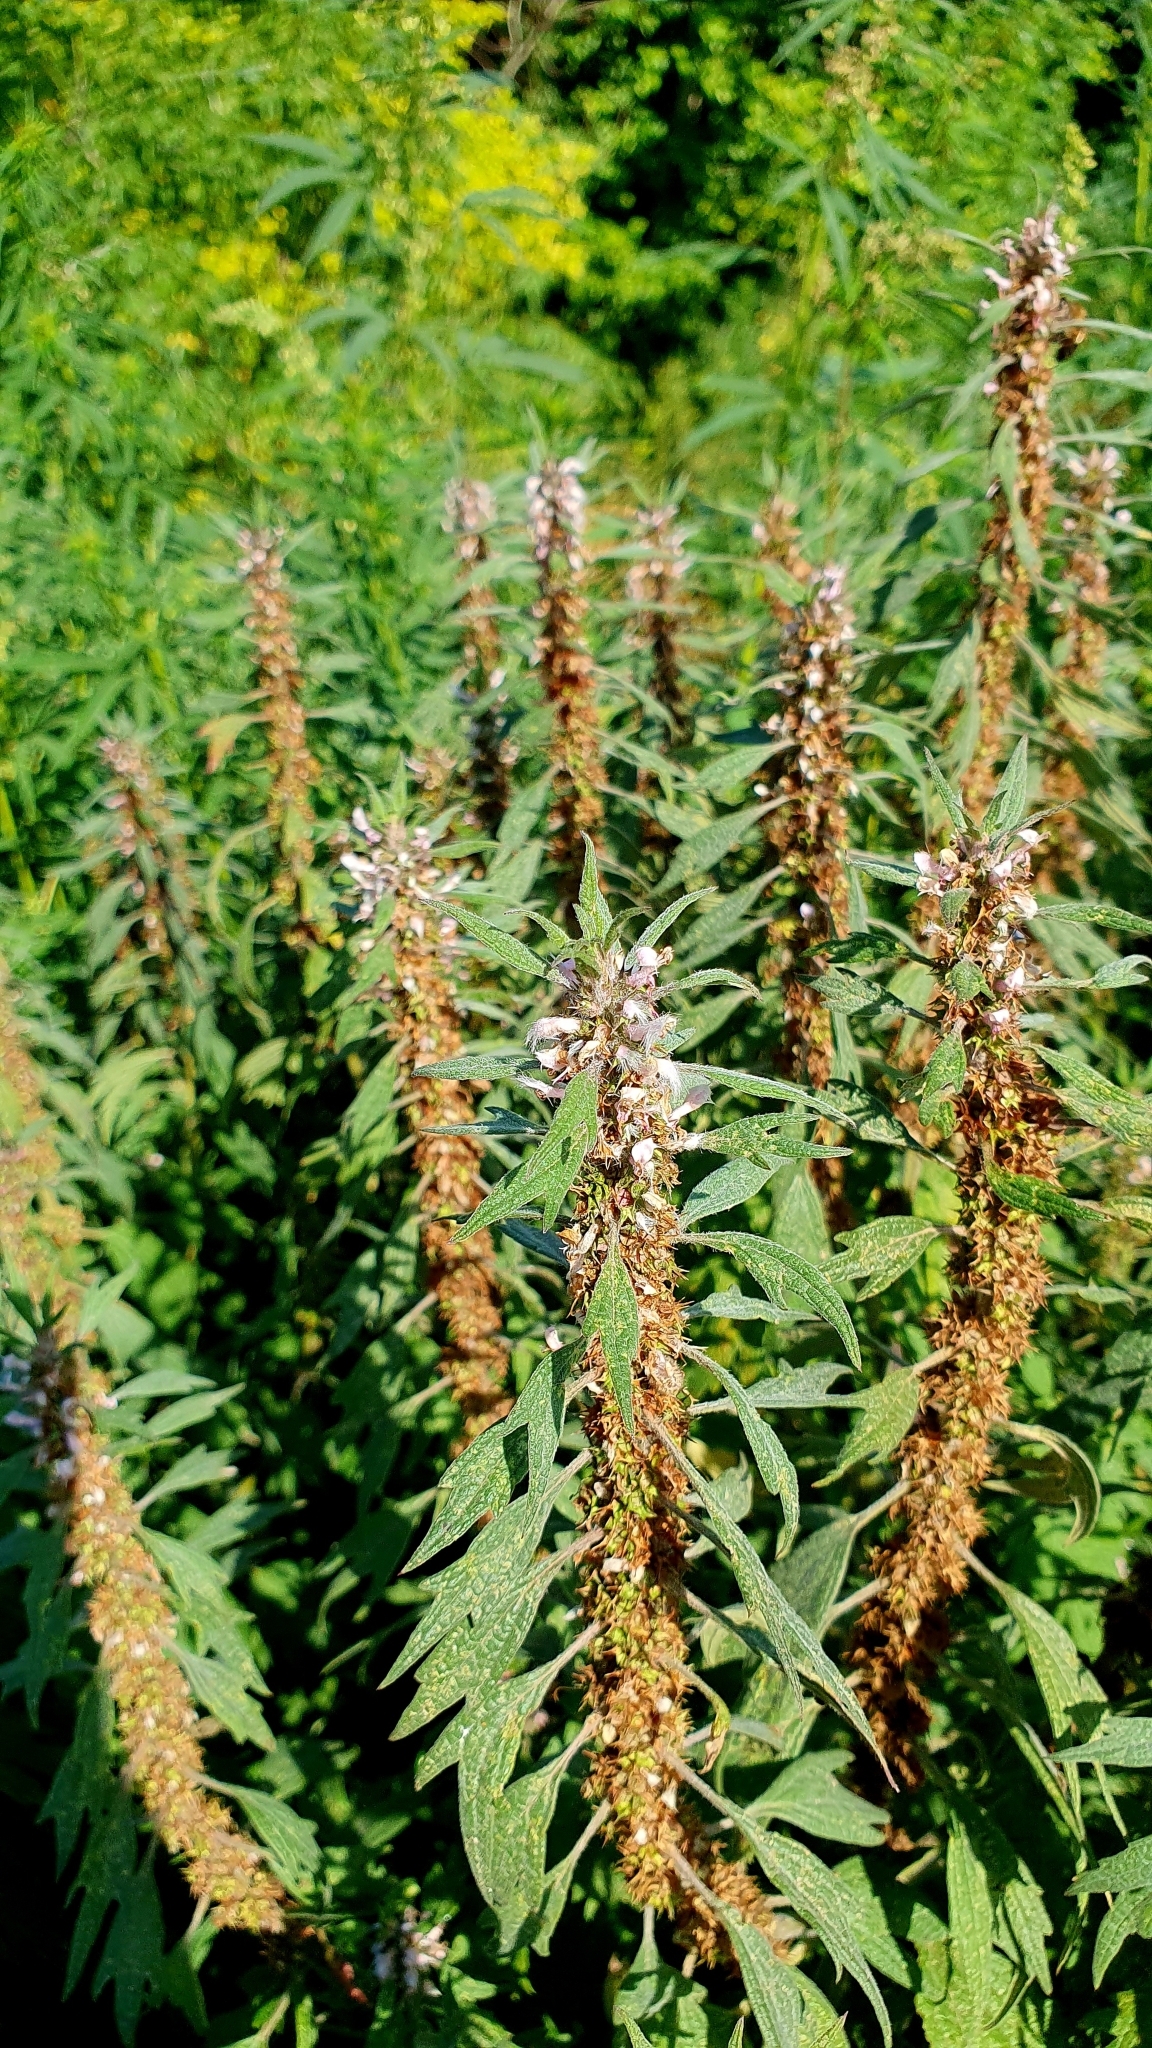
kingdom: Plantae
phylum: Tracheophyta
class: Magnoliopsida
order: Lamiales
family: Lamiaceae
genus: Leonurus
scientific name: Leonurus quinquelobatus
